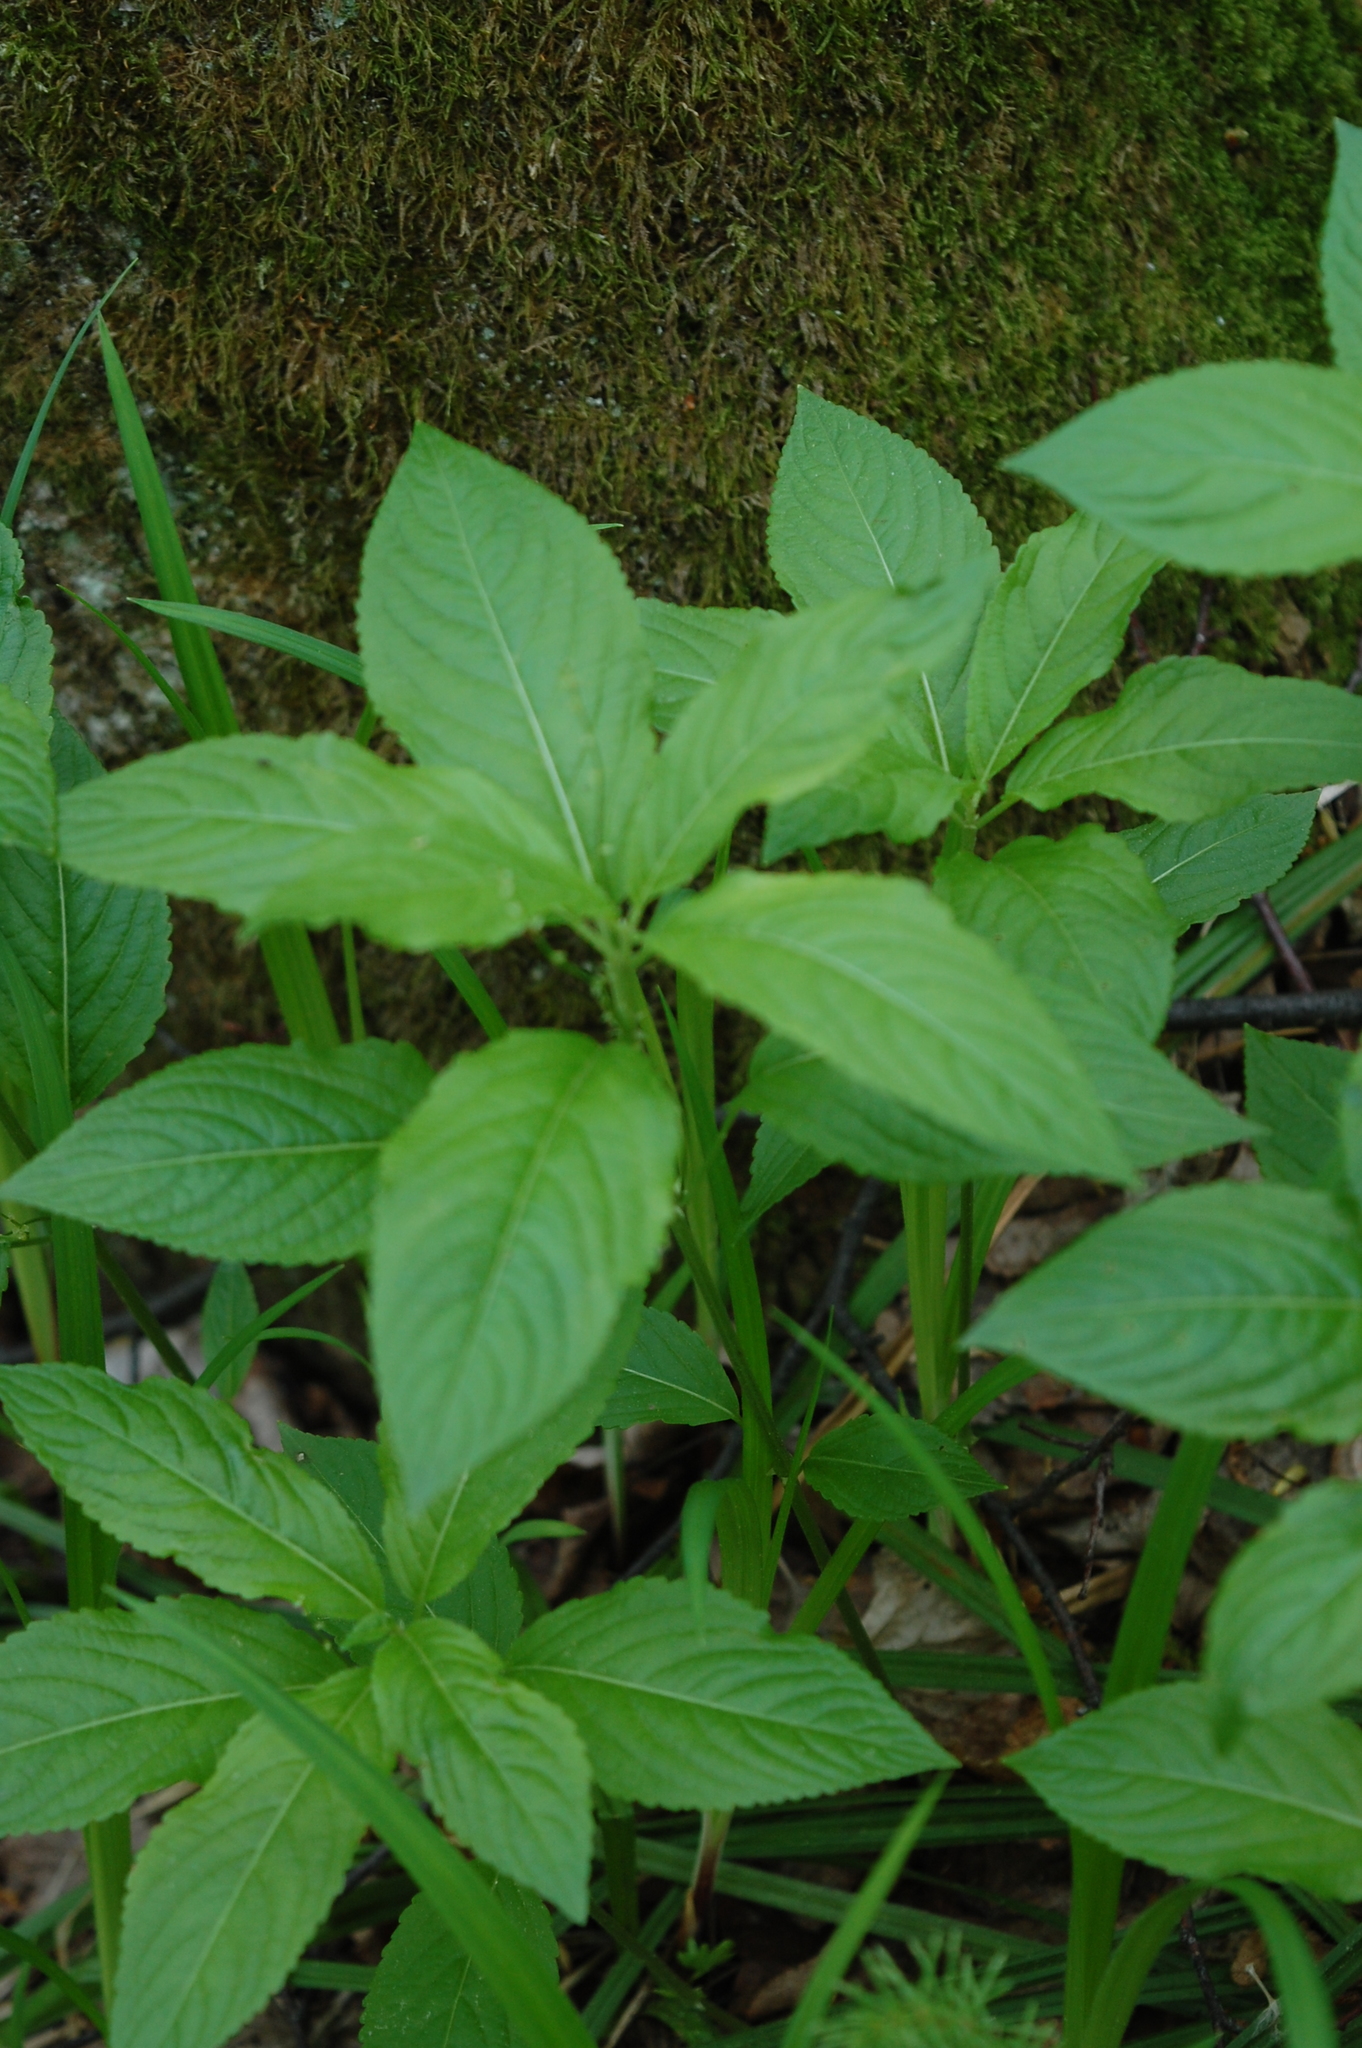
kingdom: Plantae
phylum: Tracheophyta
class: Magnoliopsida
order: Malpighiales
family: Euphorbiaceae
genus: Mercurialis
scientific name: Mercurialis perennis
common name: Dog mercury
